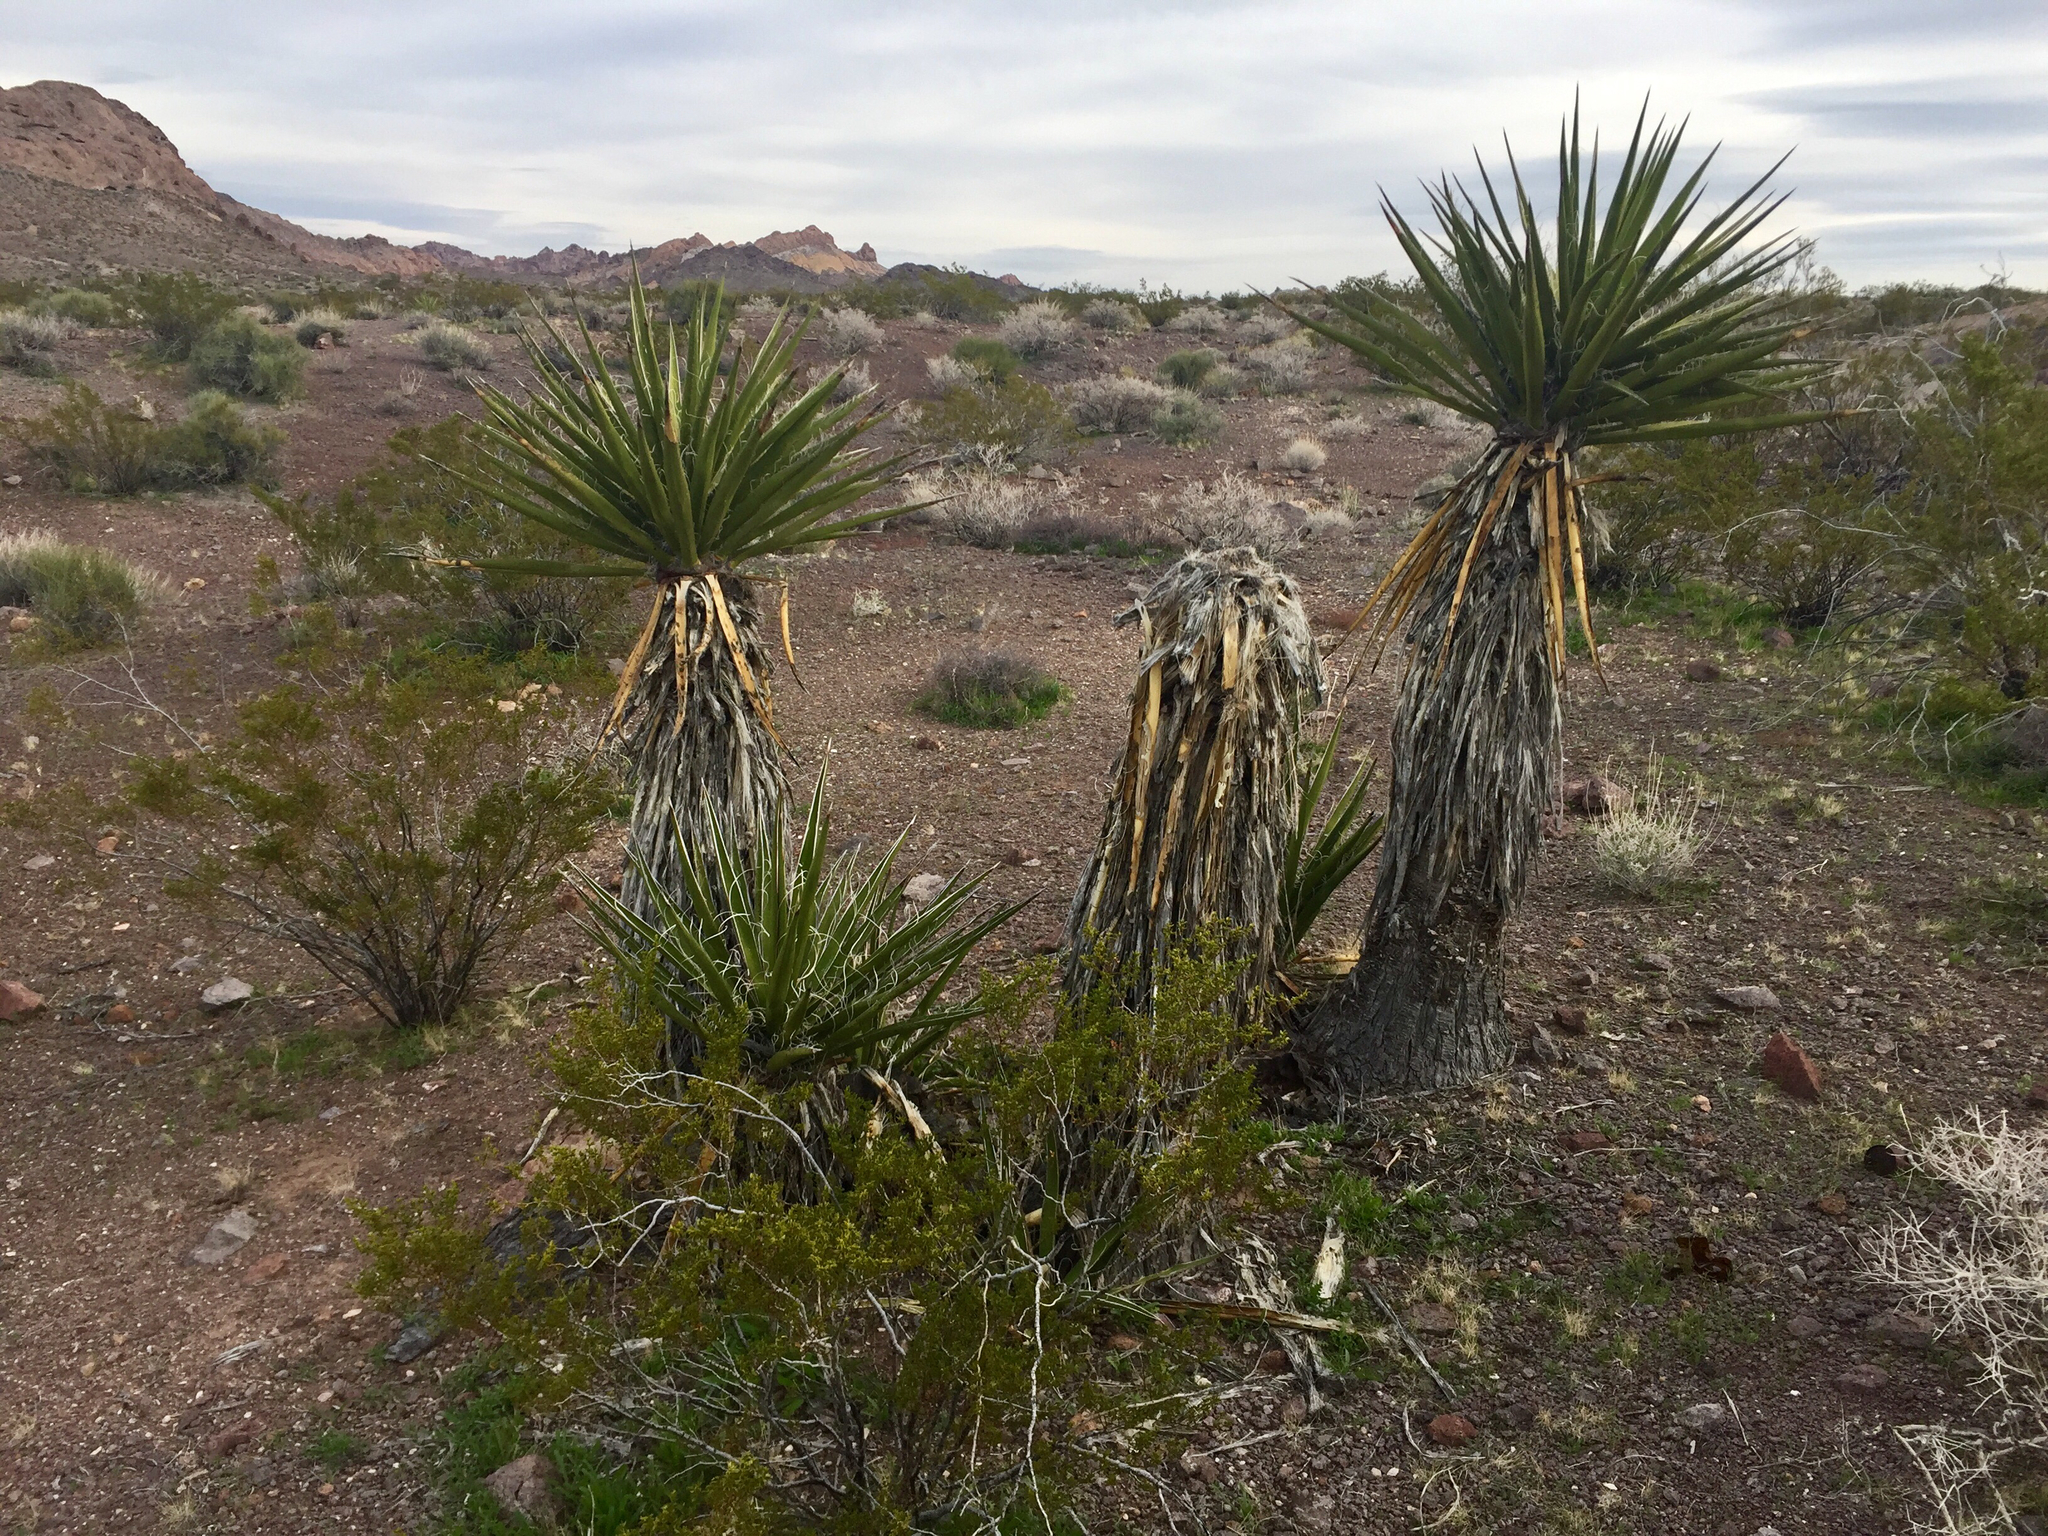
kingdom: Plantae
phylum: Tracheophyta
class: Liliopsida
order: Asparagales
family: Asparagaceae
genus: Yucca
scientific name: Yucca schidigera
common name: Mojave yucca
